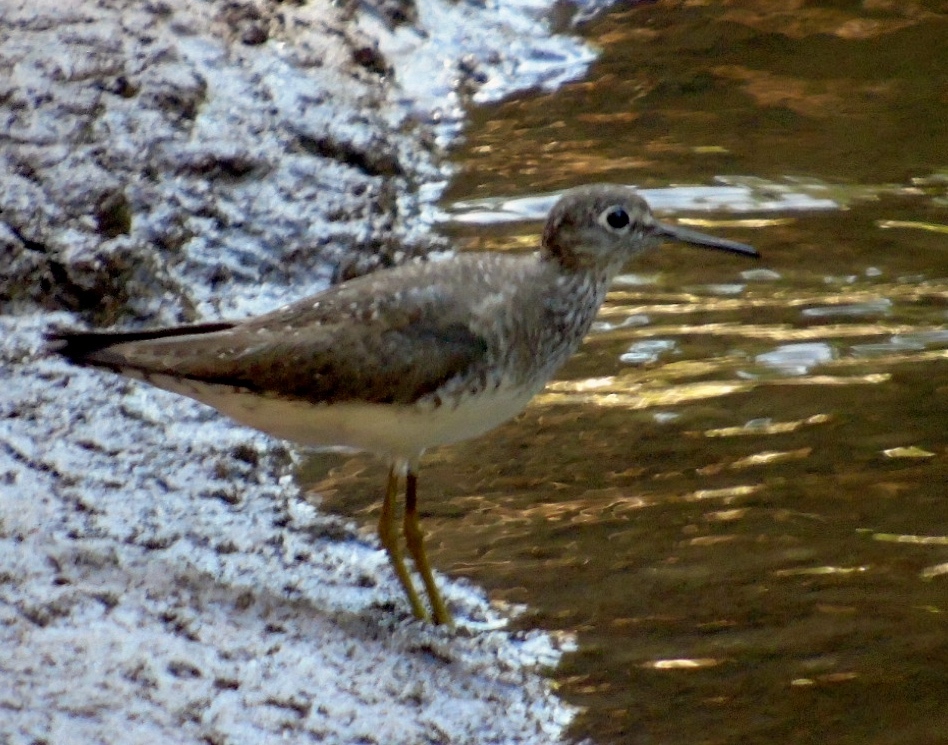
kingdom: Animalia
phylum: Chordata
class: Aves
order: Charadriiformes
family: Scolopacidae
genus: Tringa
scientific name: Tringa solitaria
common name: Solitary sandpiper
